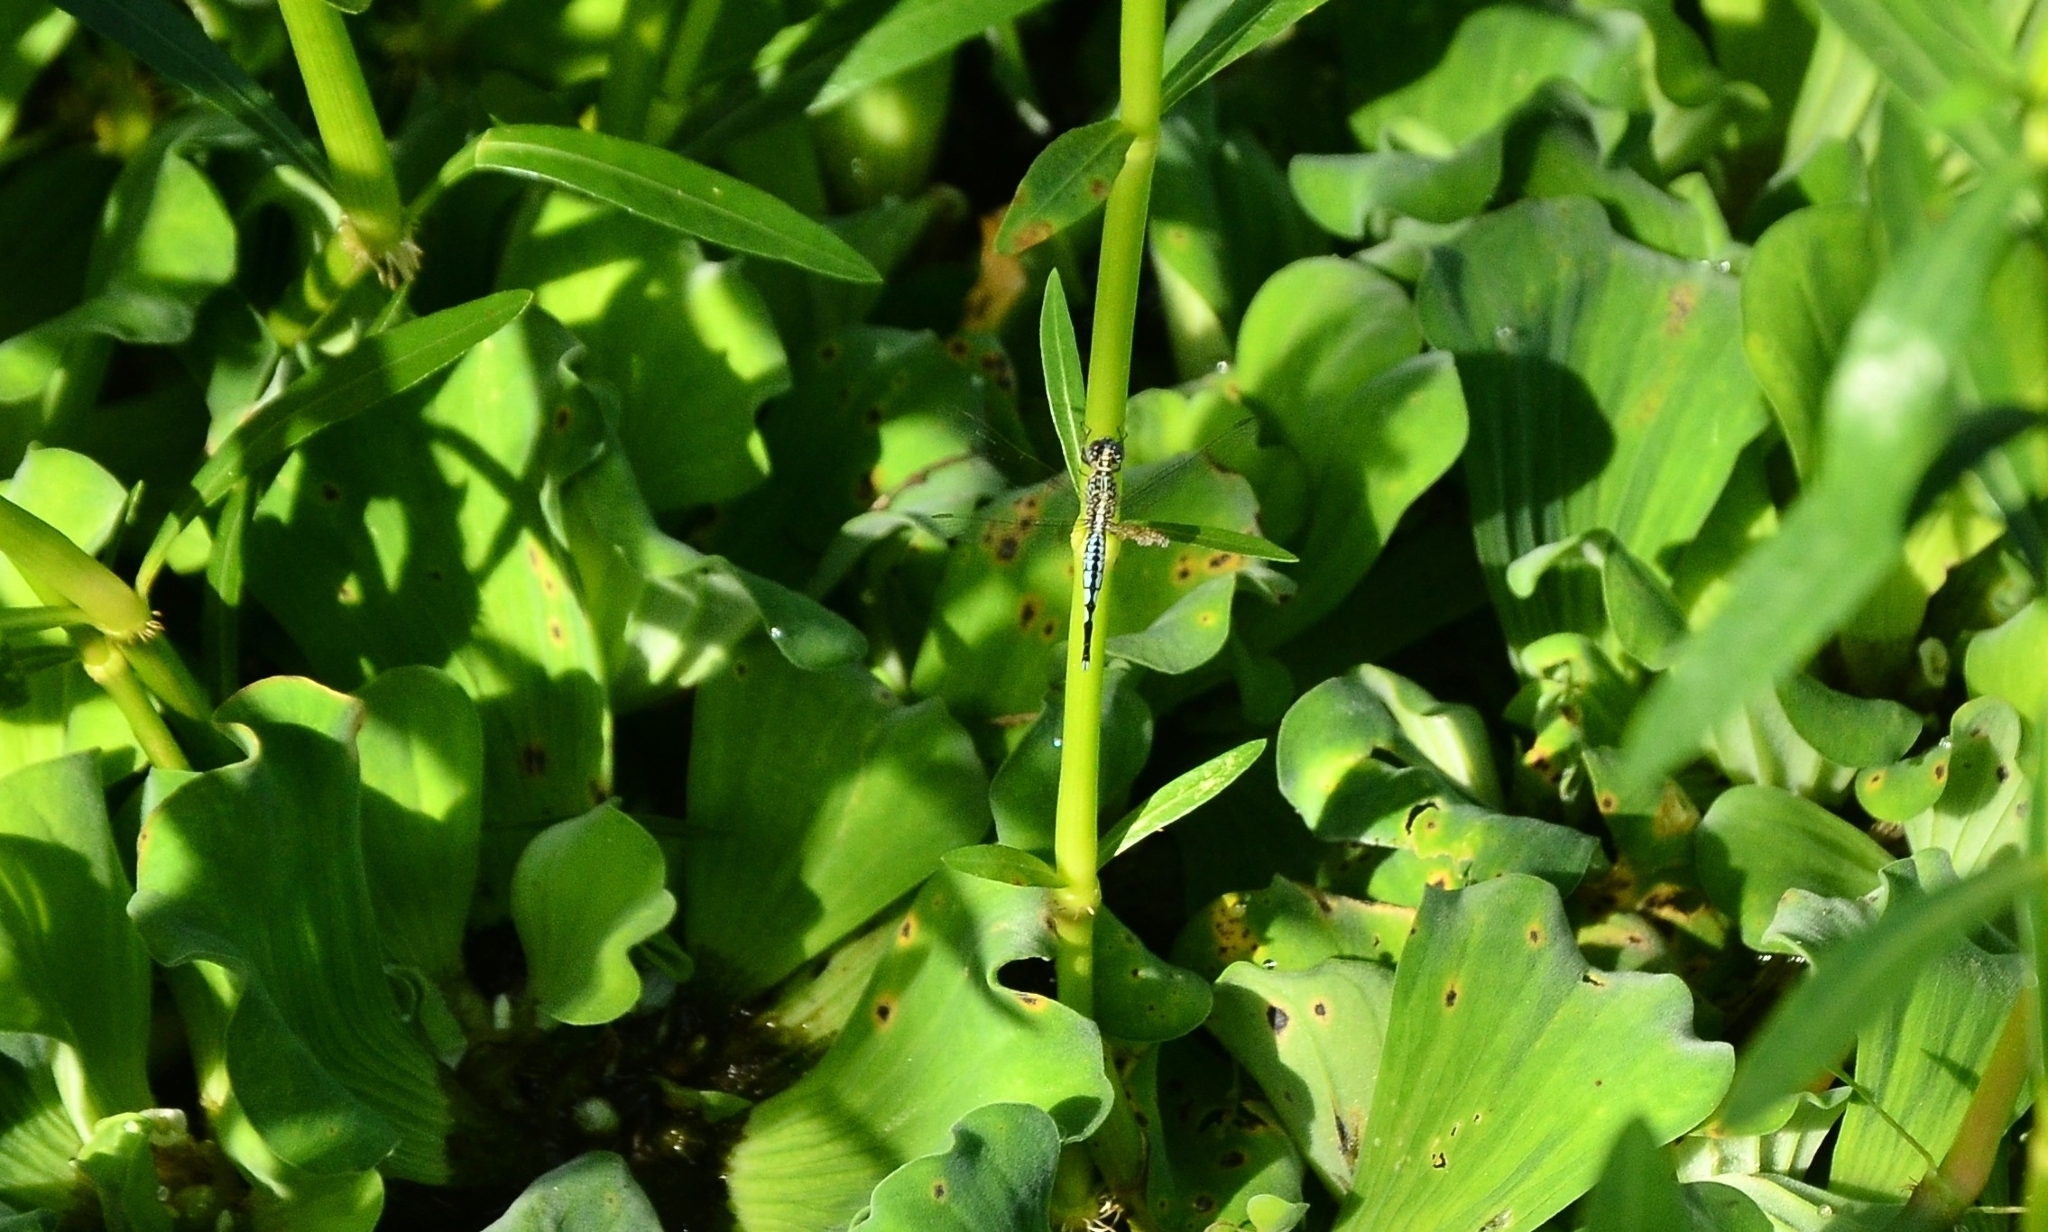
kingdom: Animalia
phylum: Arthropoda
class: Insecta
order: Odonata
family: Libellulidae
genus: Acisoma
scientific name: Acisoma panorpoides
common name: Asian pintail
